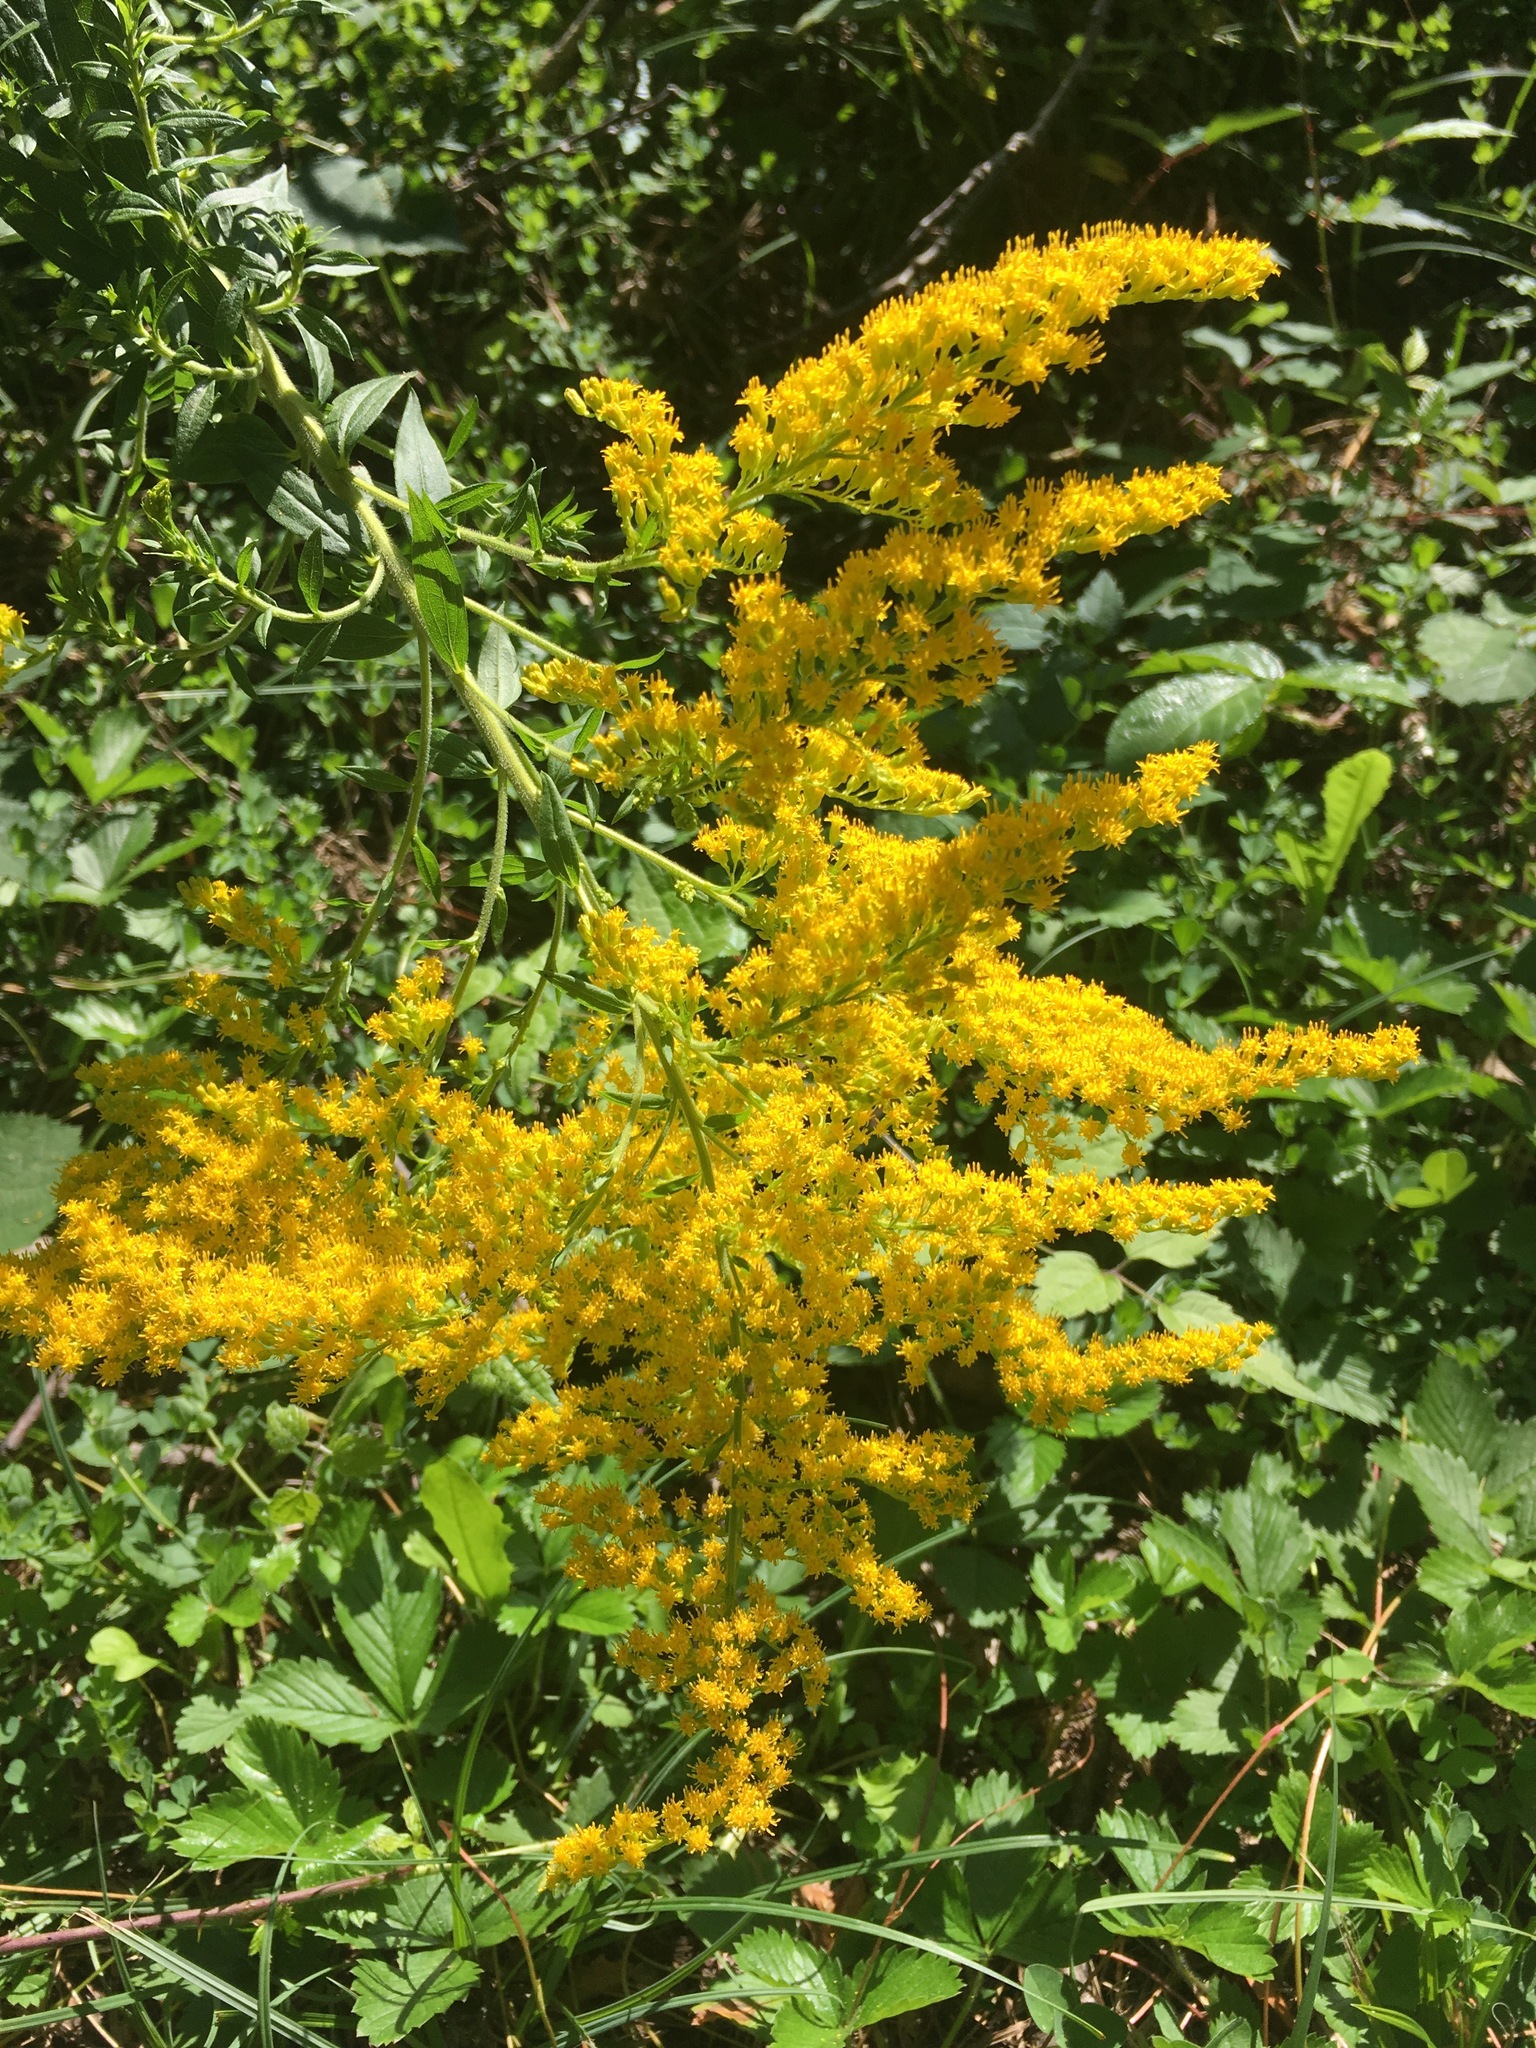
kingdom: Plantae
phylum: Tracheophyta
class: Magnoliopsida
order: Asterales
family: Asteraceae
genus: Solidago
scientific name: Solidago canadensis
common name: Canada goldenrod
